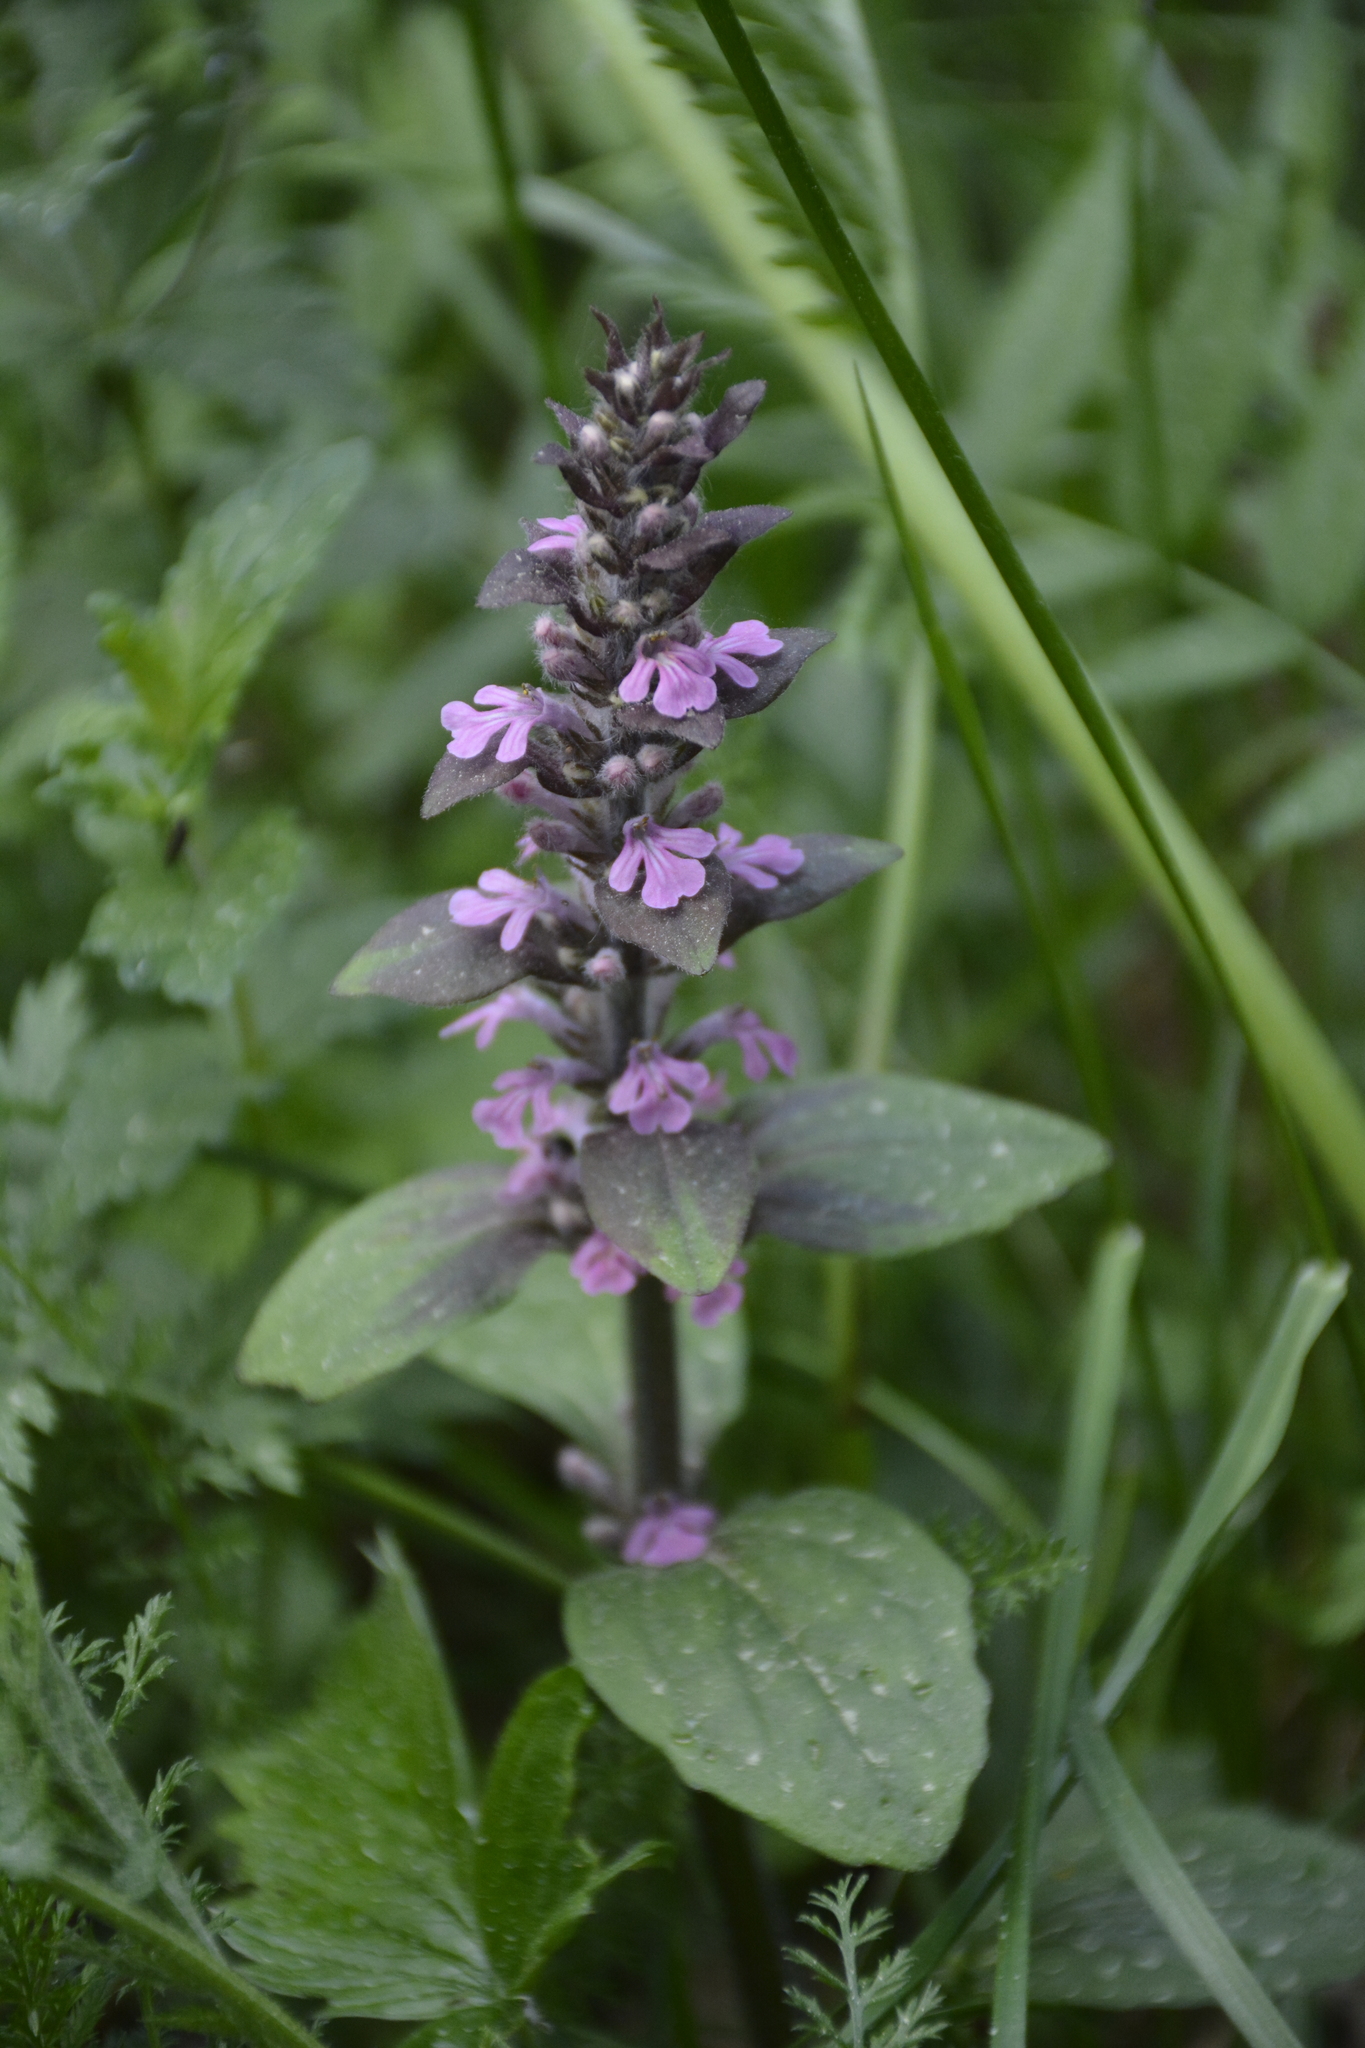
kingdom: Plantae
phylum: Tracheophyta
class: Magnoliopsida
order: Lamiales
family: Lamiaceae
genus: Ajuga
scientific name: Ajuga reptans
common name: Bugle
